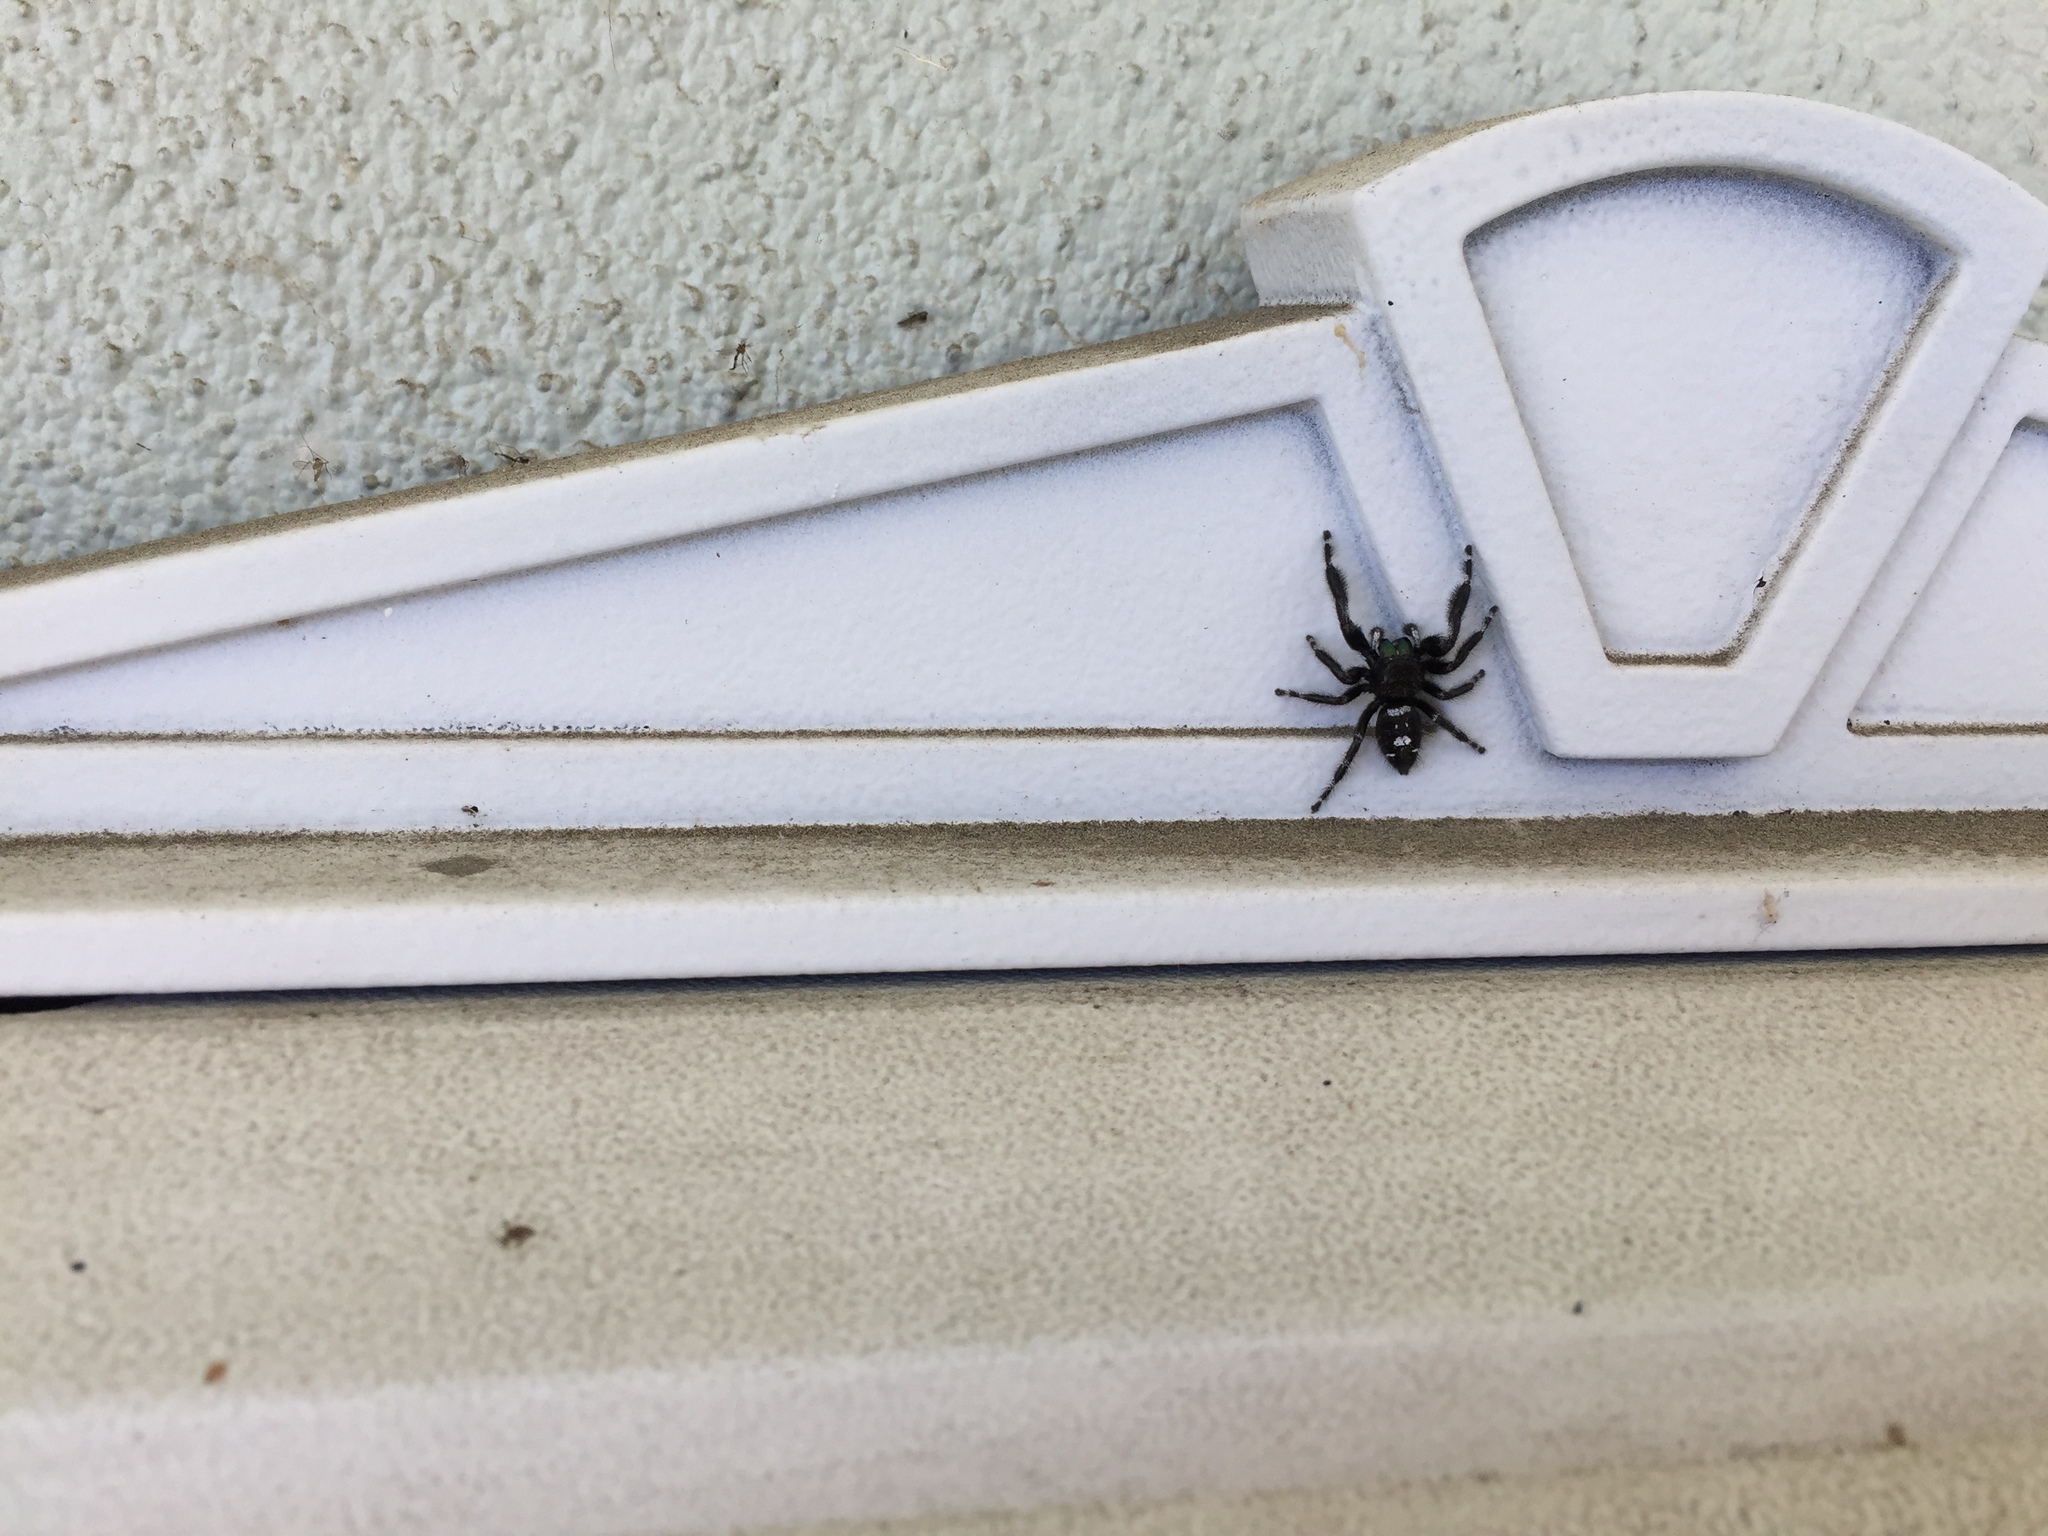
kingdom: Animalia
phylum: Arthropoda
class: Arachnida
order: Araneae
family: Salticidae
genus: Phidippus
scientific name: Phidippus audax
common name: Bold jumper
